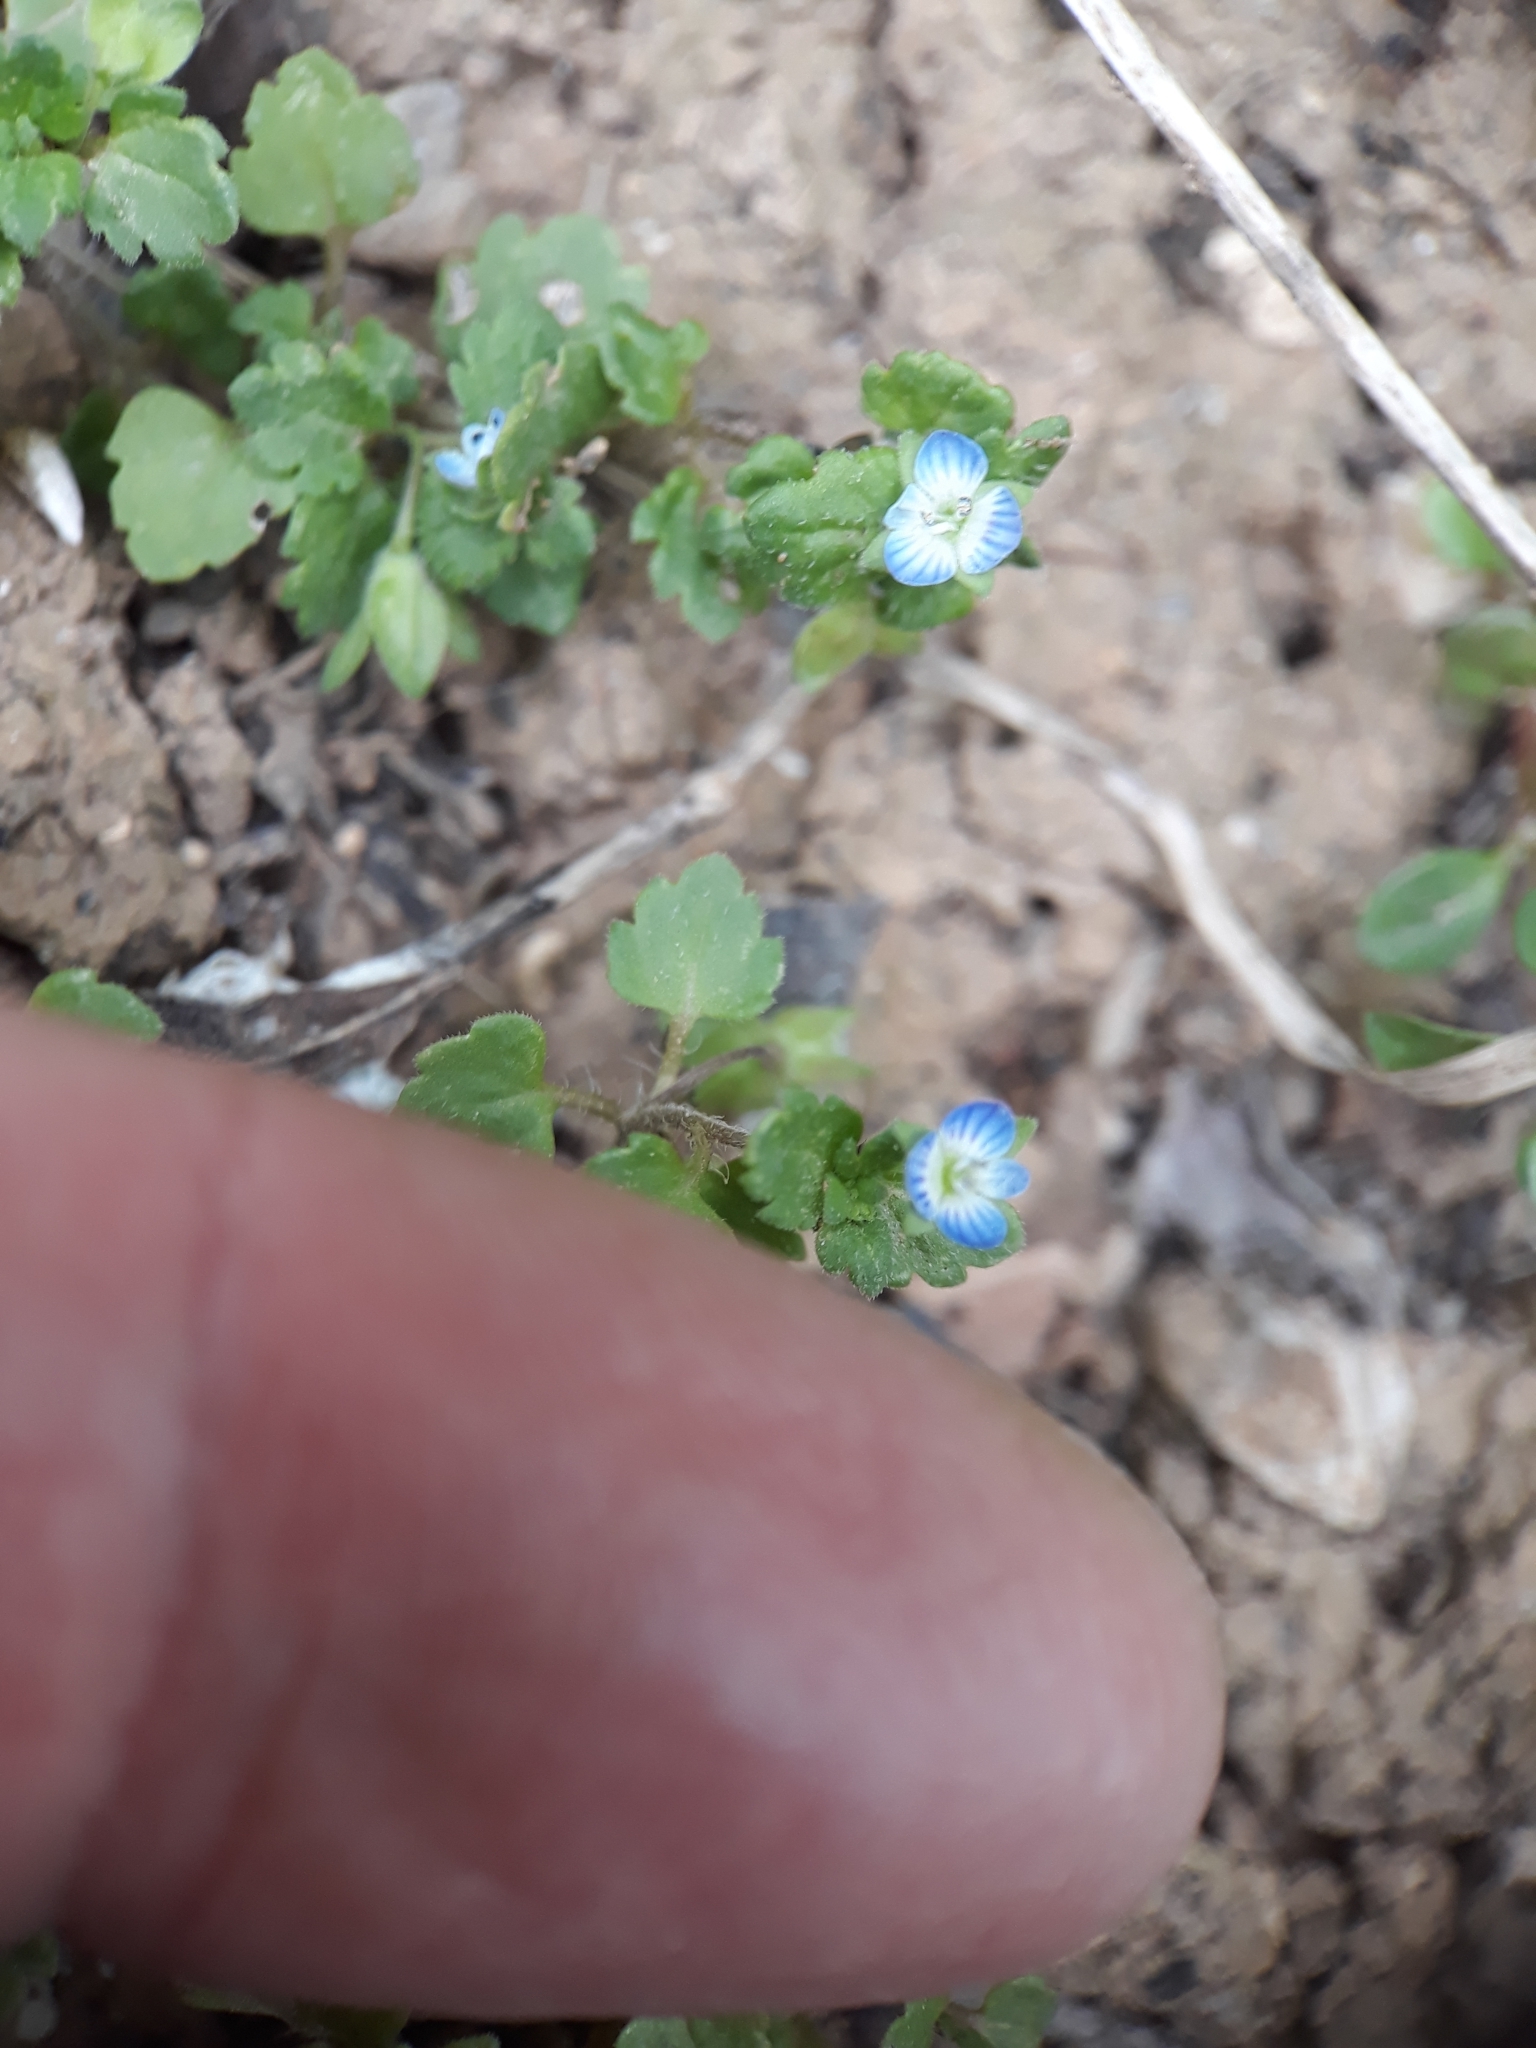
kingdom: Plantae
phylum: Tracheophyta
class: Magnoliopsida
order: Lamiales
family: Plantaginaceae
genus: Veronica
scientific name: Veronica polita
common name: Grey field-speedwell
